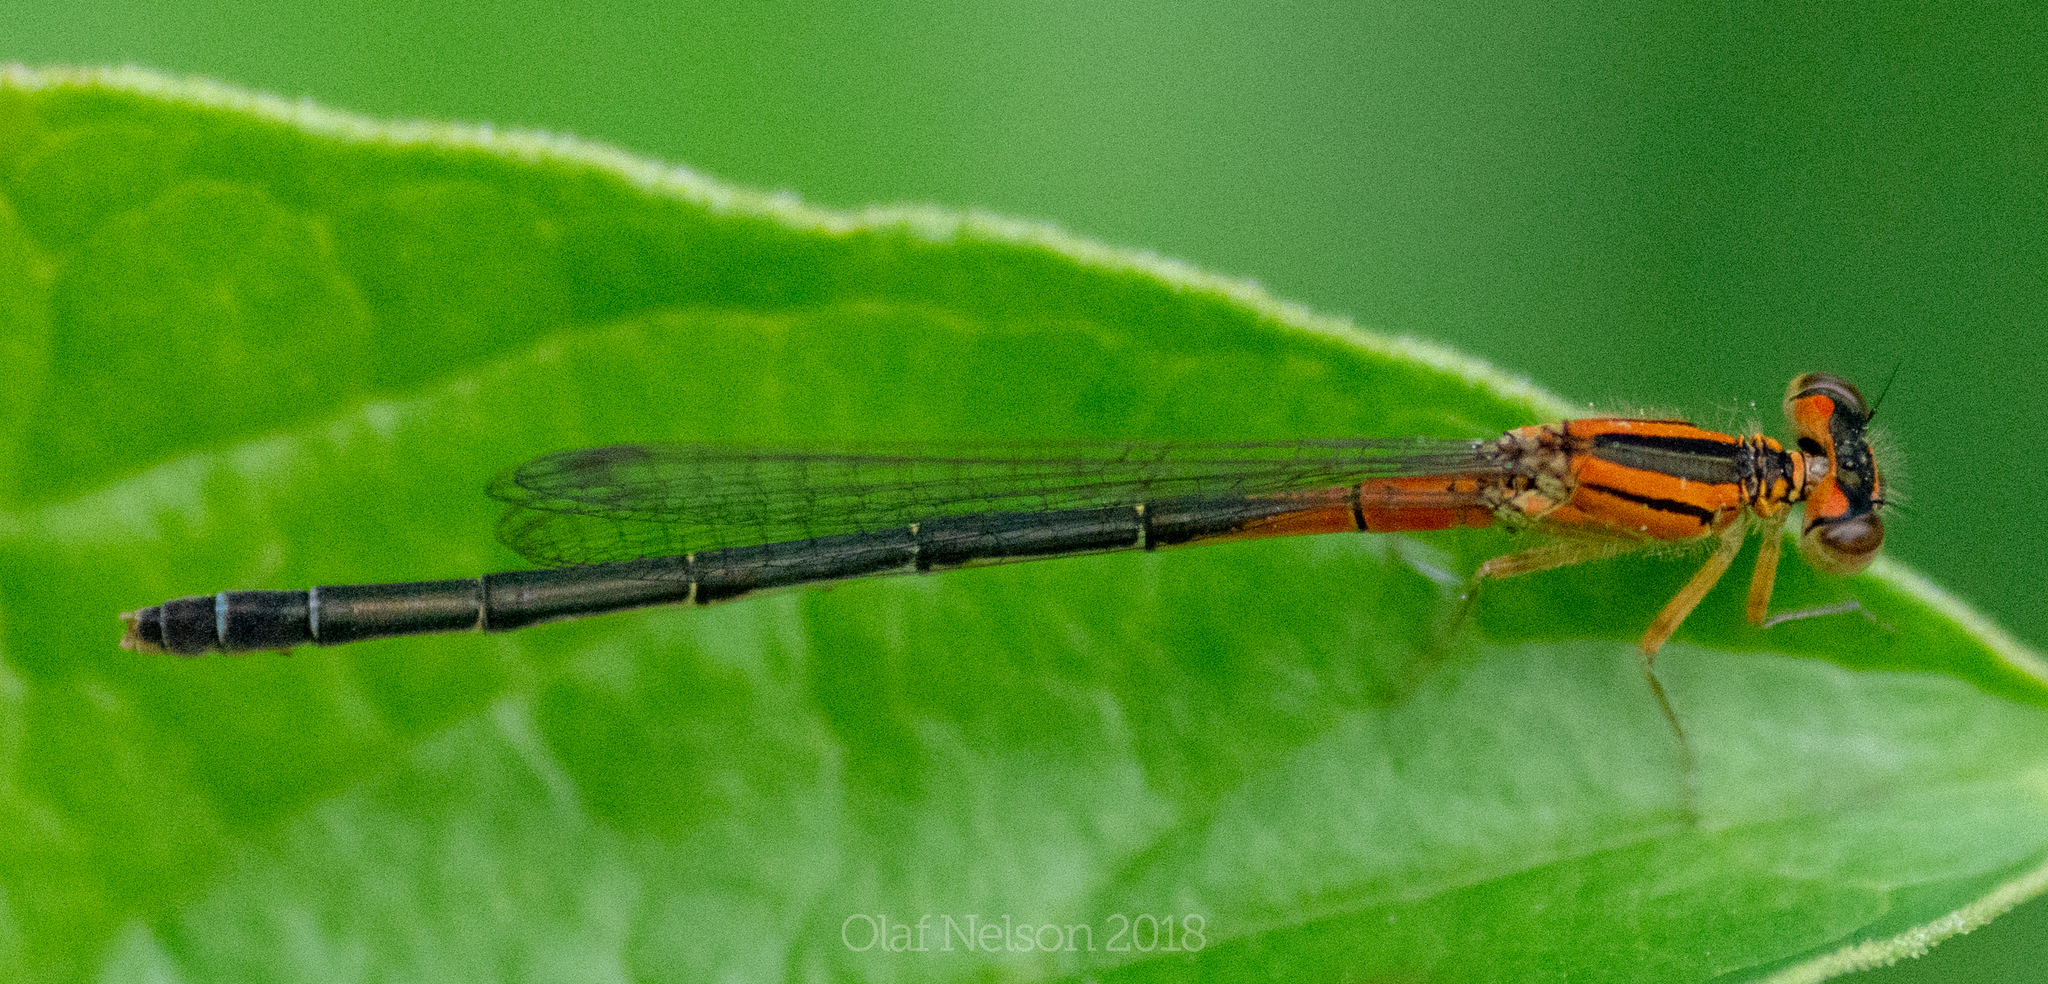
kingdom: Animalia
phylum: Arthropoda
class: Insecta
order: Odonata
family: Coenagrionidae
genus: Ischnura
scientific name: Ischnura verticalis
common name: Eastern forktail
